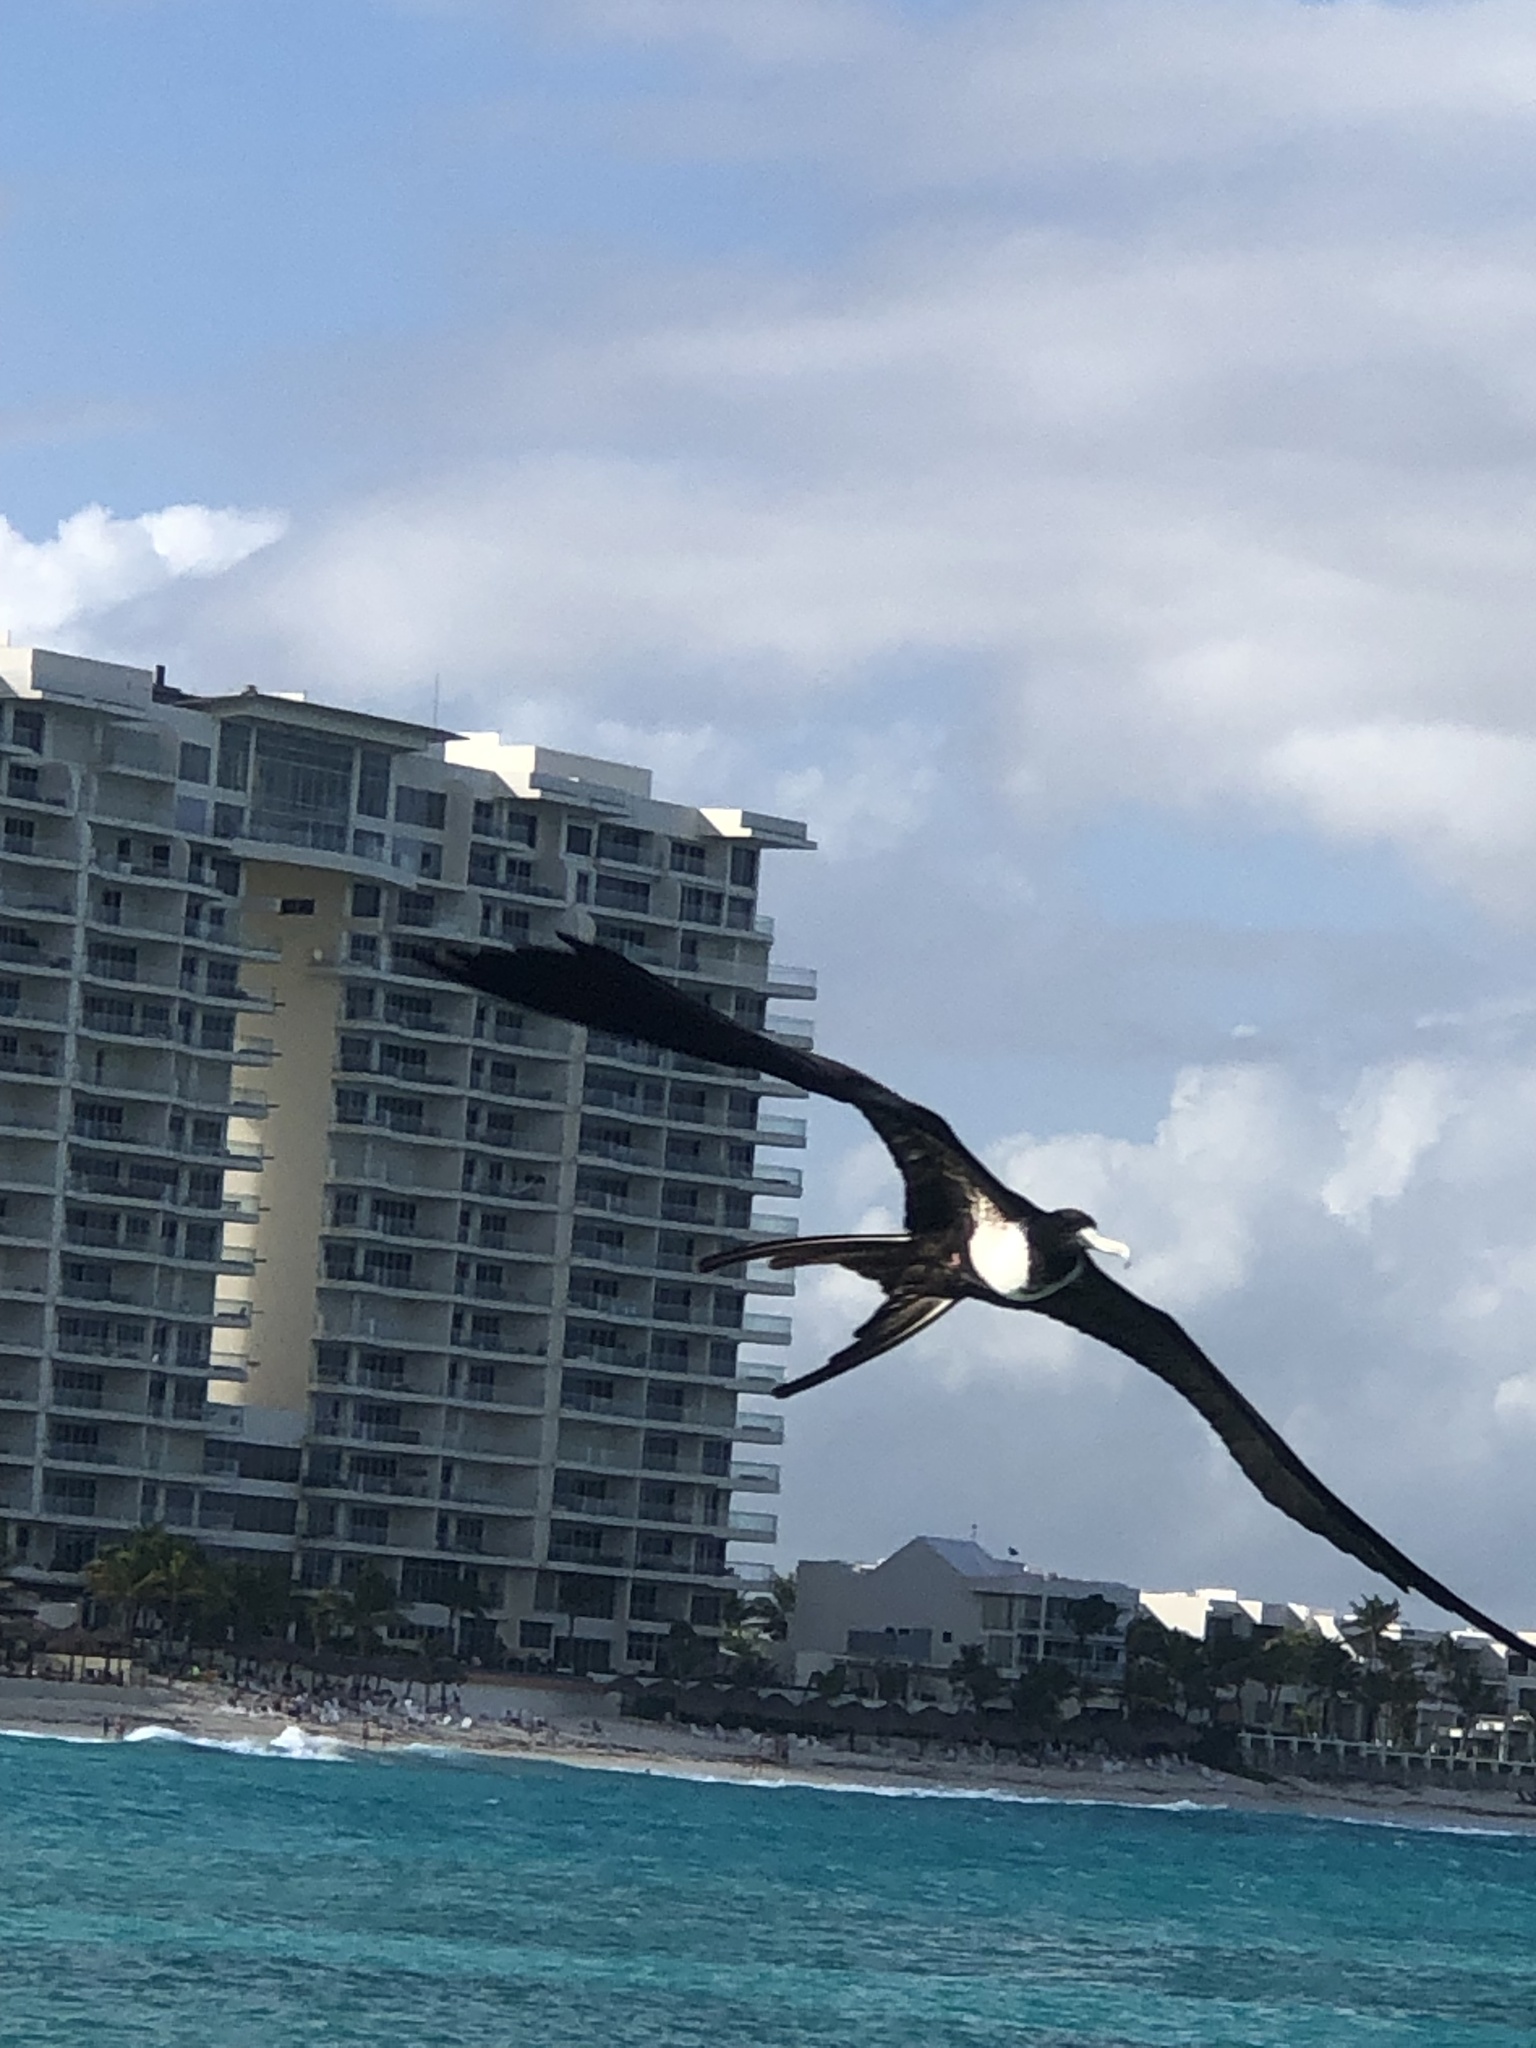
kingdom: Animalia
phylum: Chordata
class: Aves
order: Suliformes
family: Fregatidae
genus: Fregata
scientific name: Fregata magnificens
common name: Magnificent frigatebird
